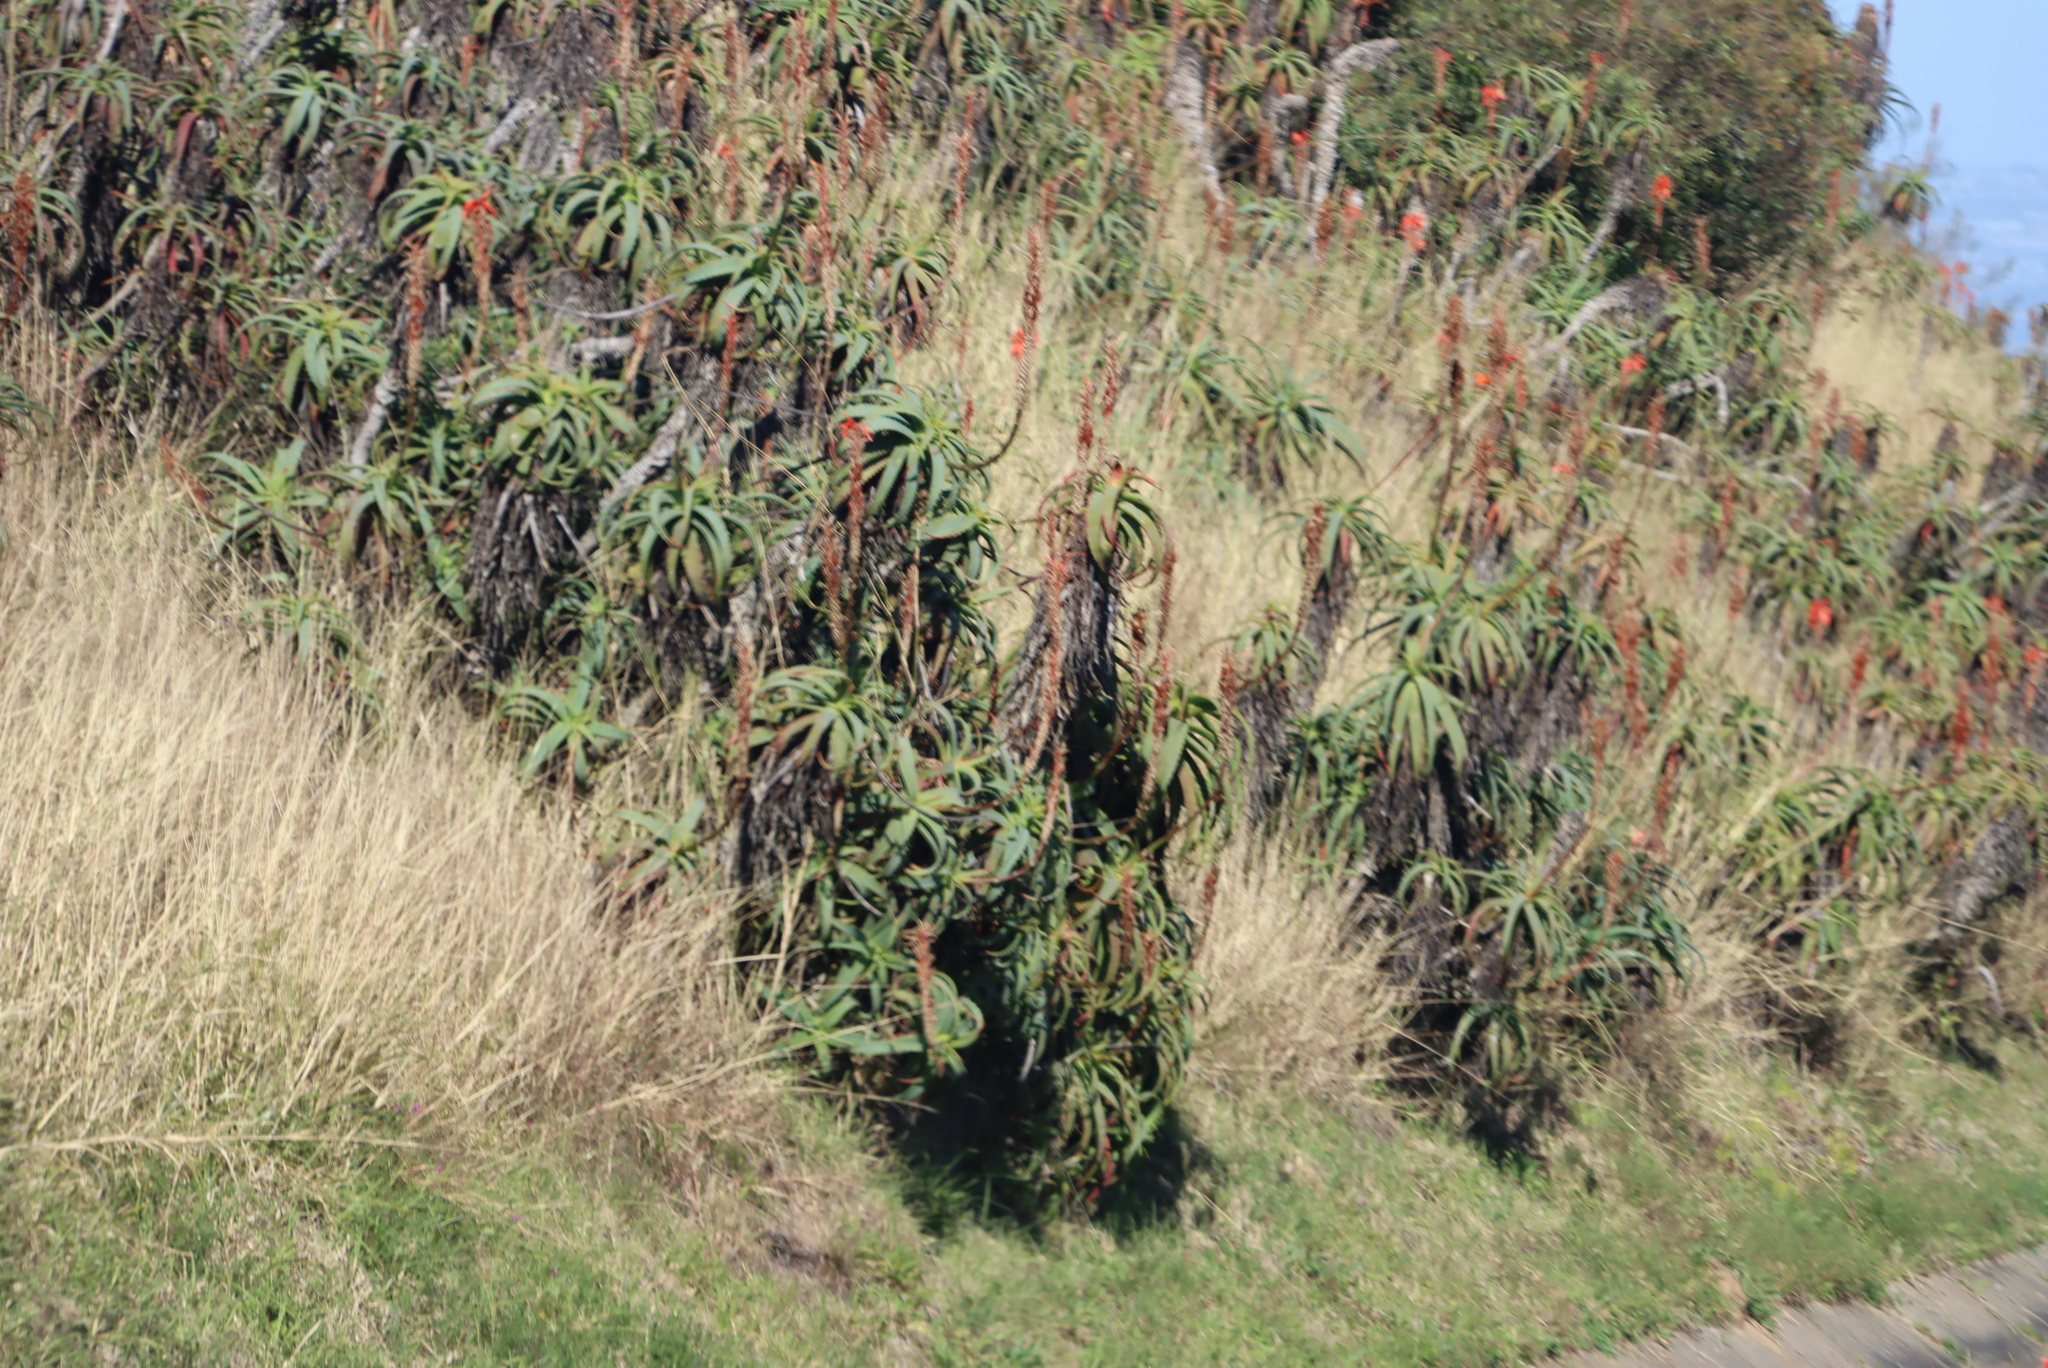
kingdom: Plantae
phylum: Tracheophyta
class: Liliopsida
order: Asparagales
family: Asphodelaceae
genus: Aloe
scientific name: Aloe arborescens
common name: Candelabra aloe
